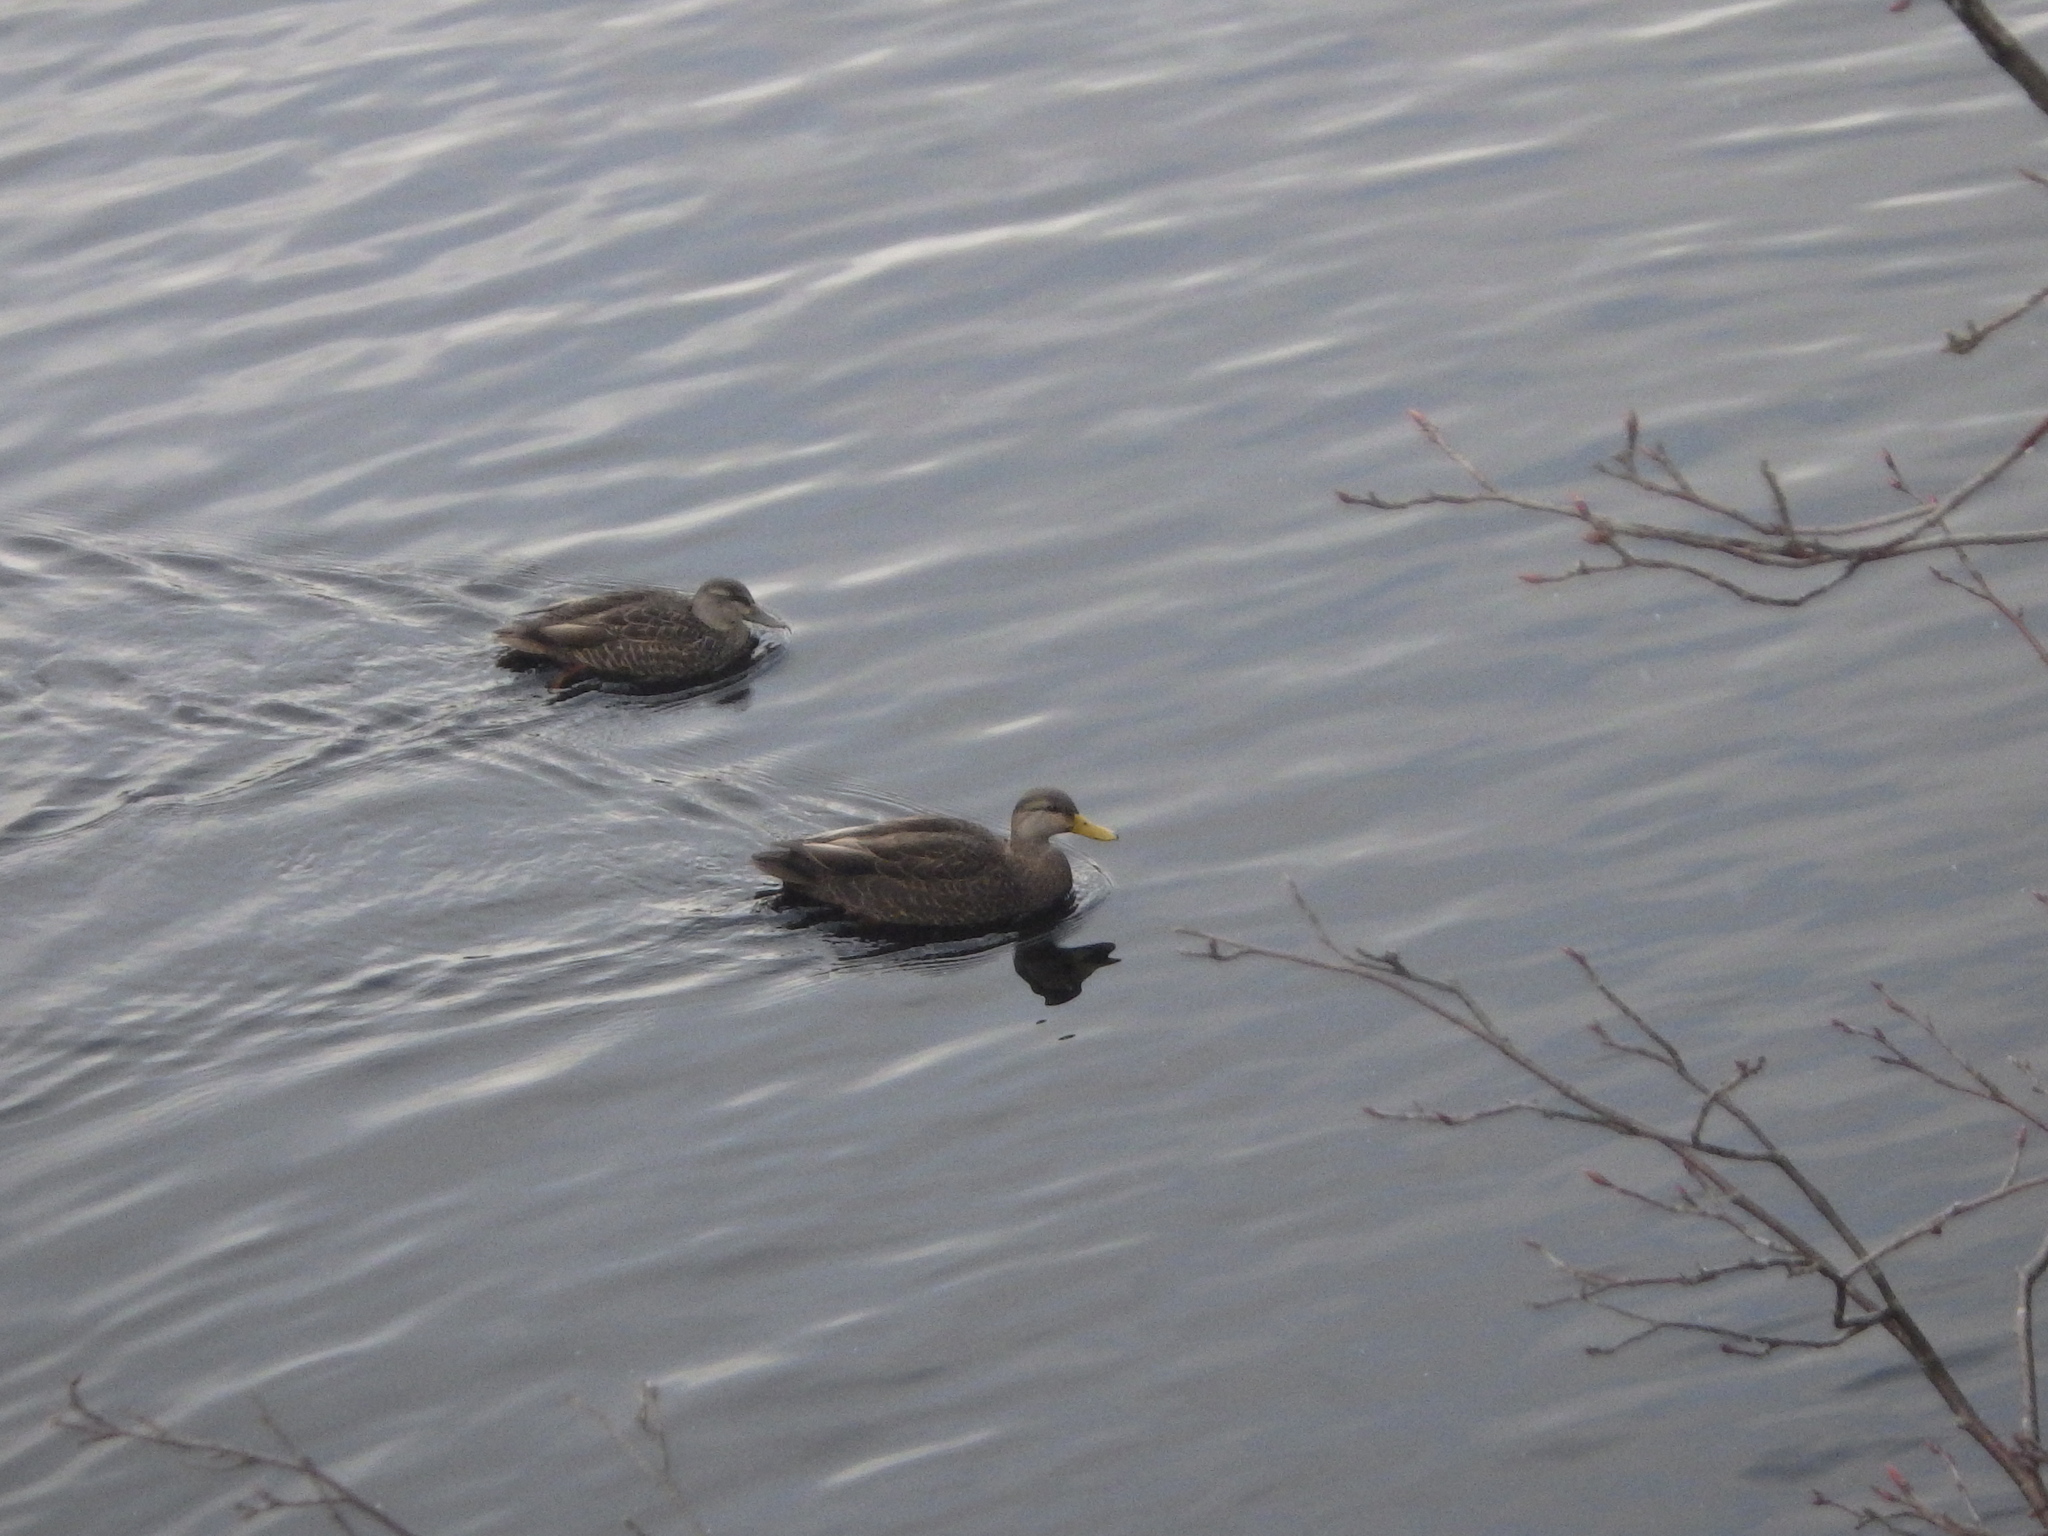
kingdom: Animalia
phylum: Chordata
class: Aves
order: Anseriformes
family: Anatidae
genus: Anas
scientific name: Anas rubripes
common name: American black duck
